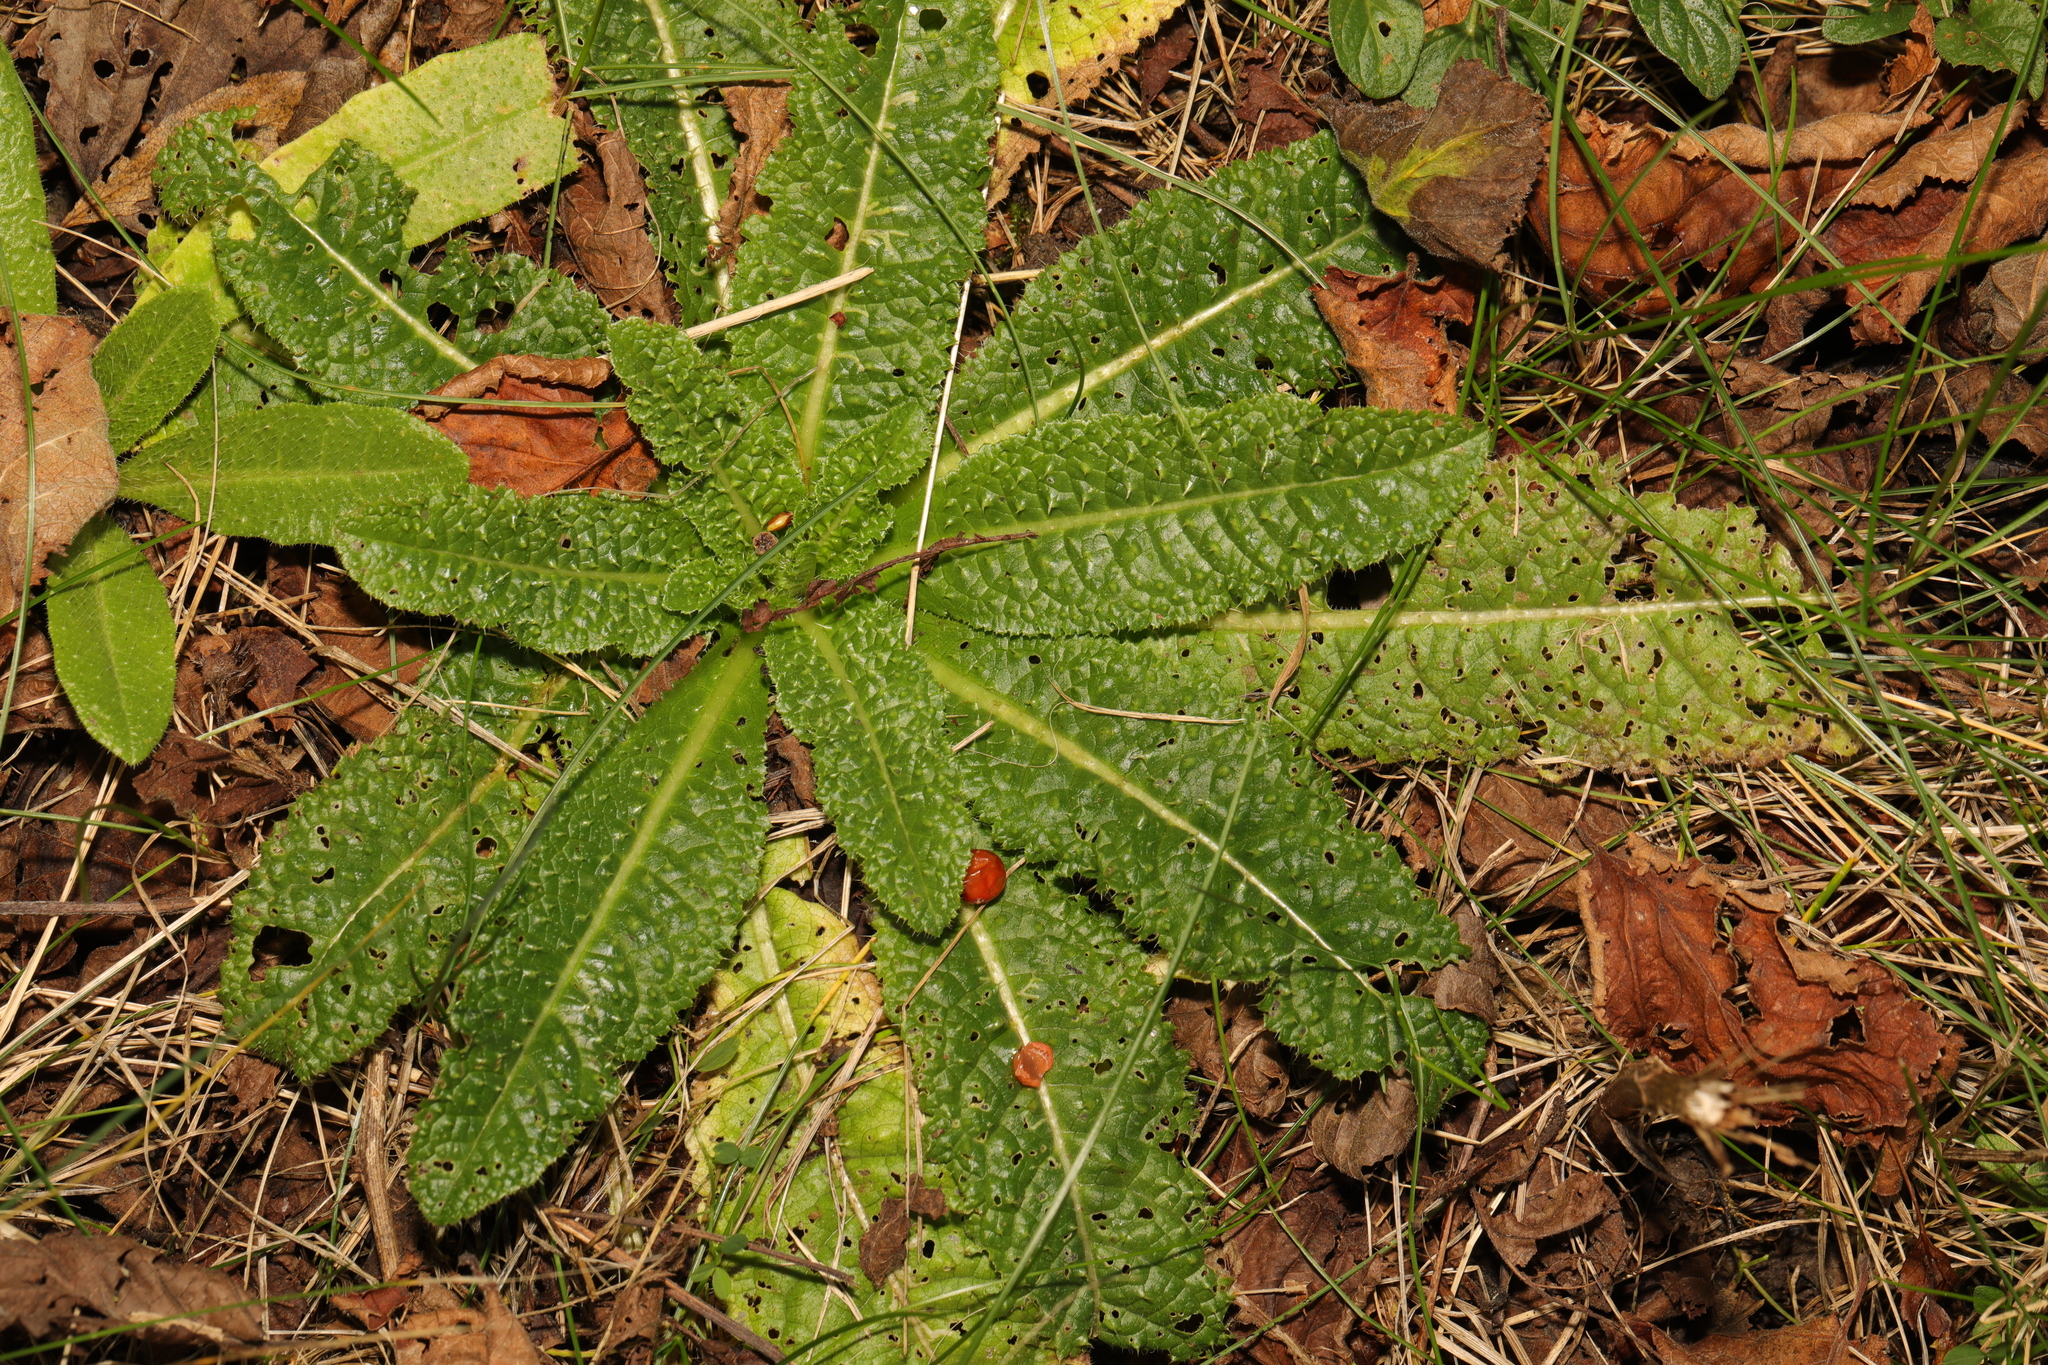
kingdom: Plantae
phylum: Tracheophyta
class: Magnoliopsida
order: Dipsacales
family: Caprifoliaceae
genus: Dipsacus
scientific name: Dipsacus fullonum
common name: Teasel
